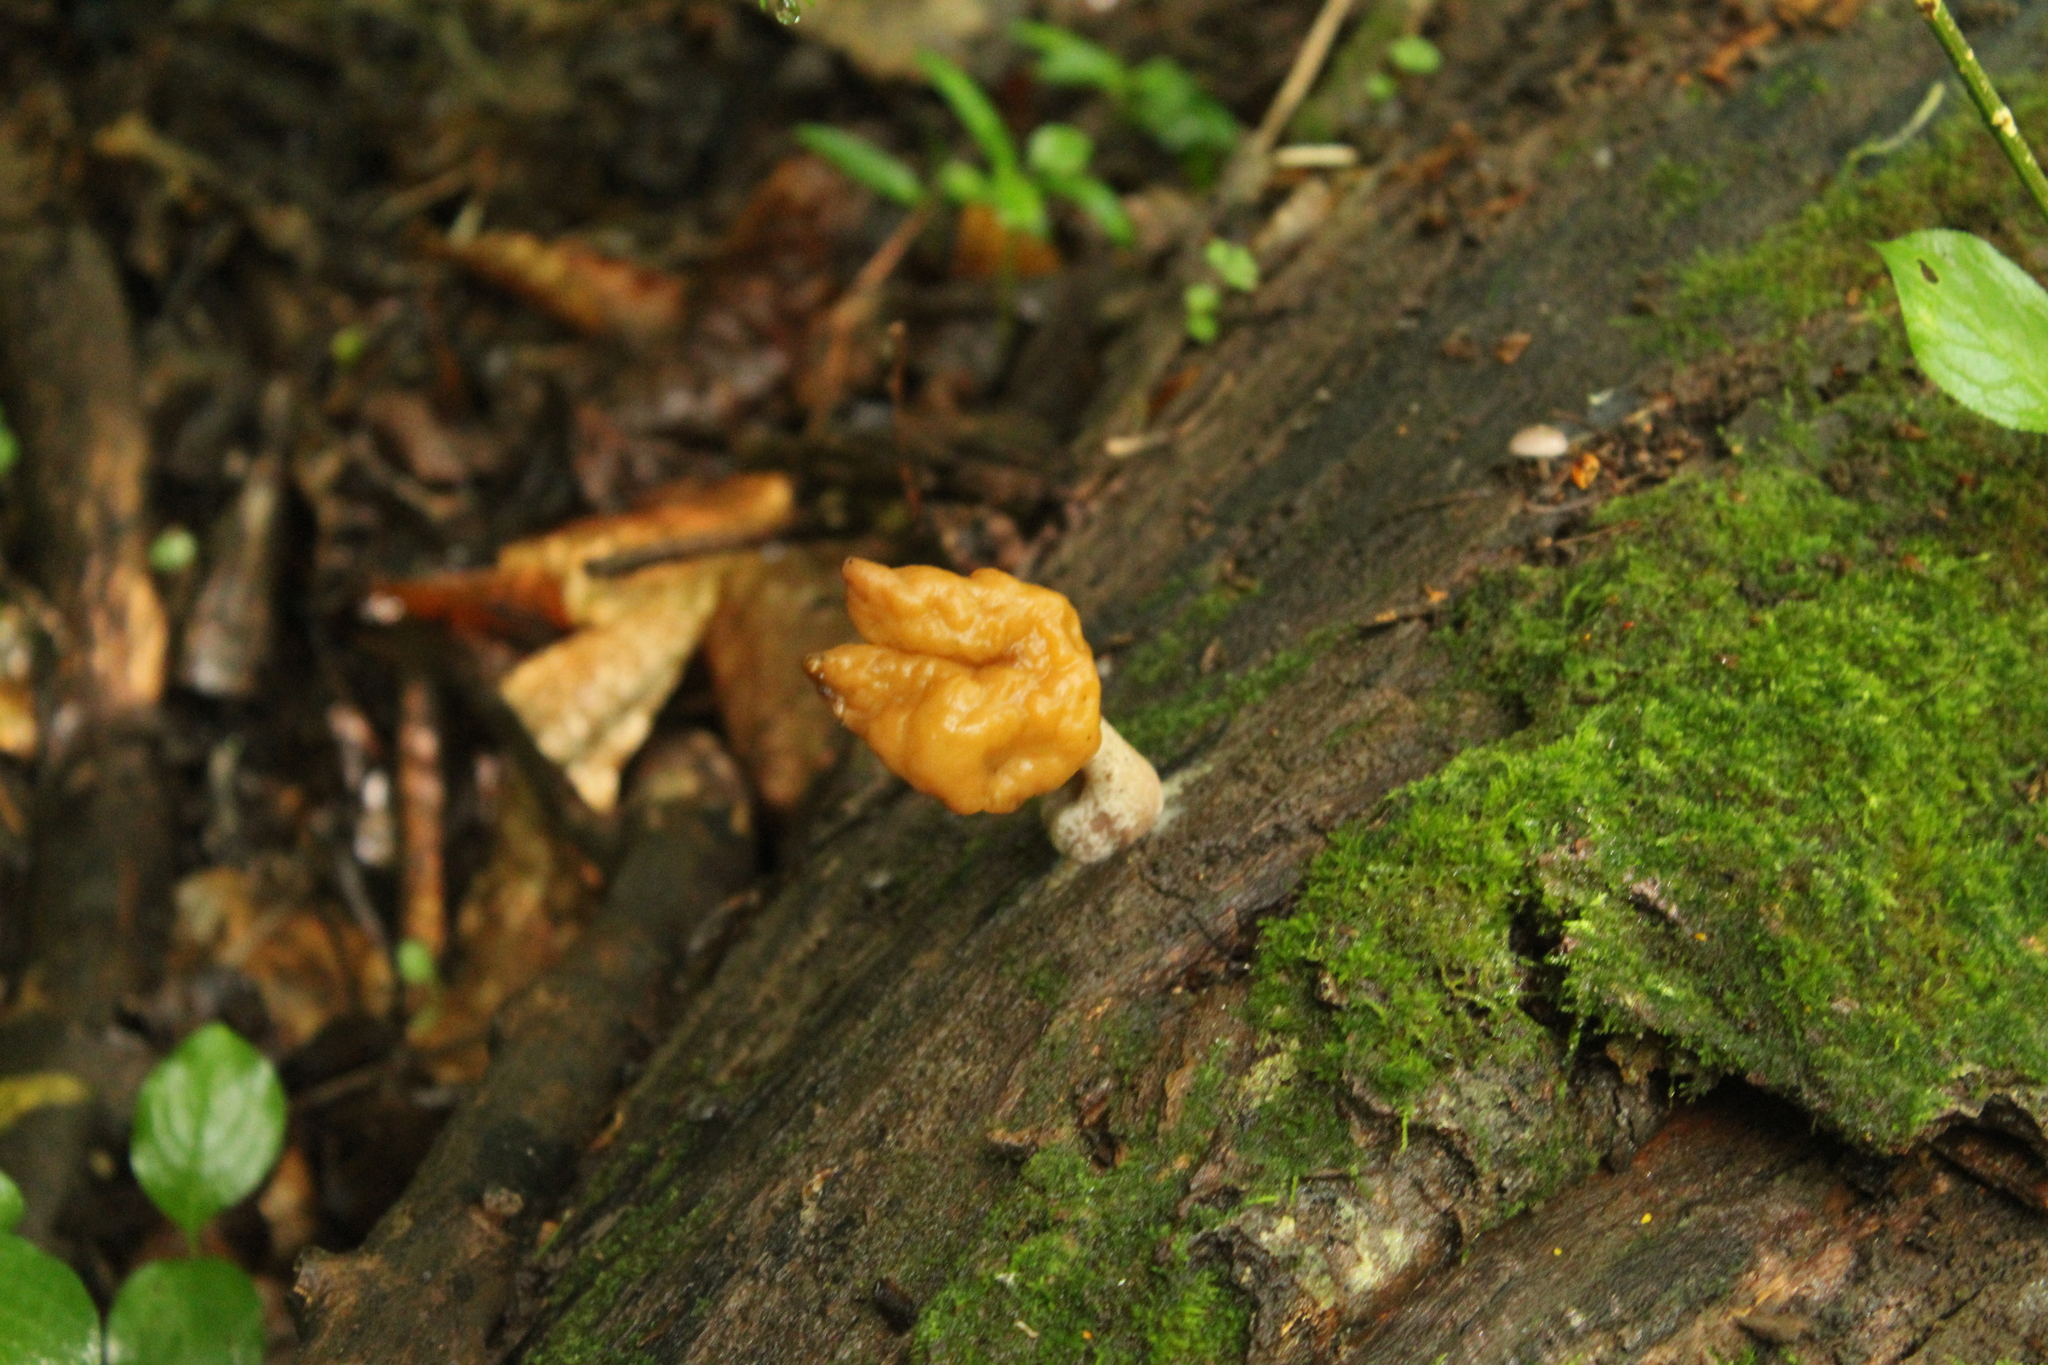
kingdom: Fungi
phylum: Ascomycota
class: Pezizomycetes
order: Pezizales
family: Discinaceae
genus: Gyromitra
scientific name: Gyromitra infula
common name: Pouched false morel
